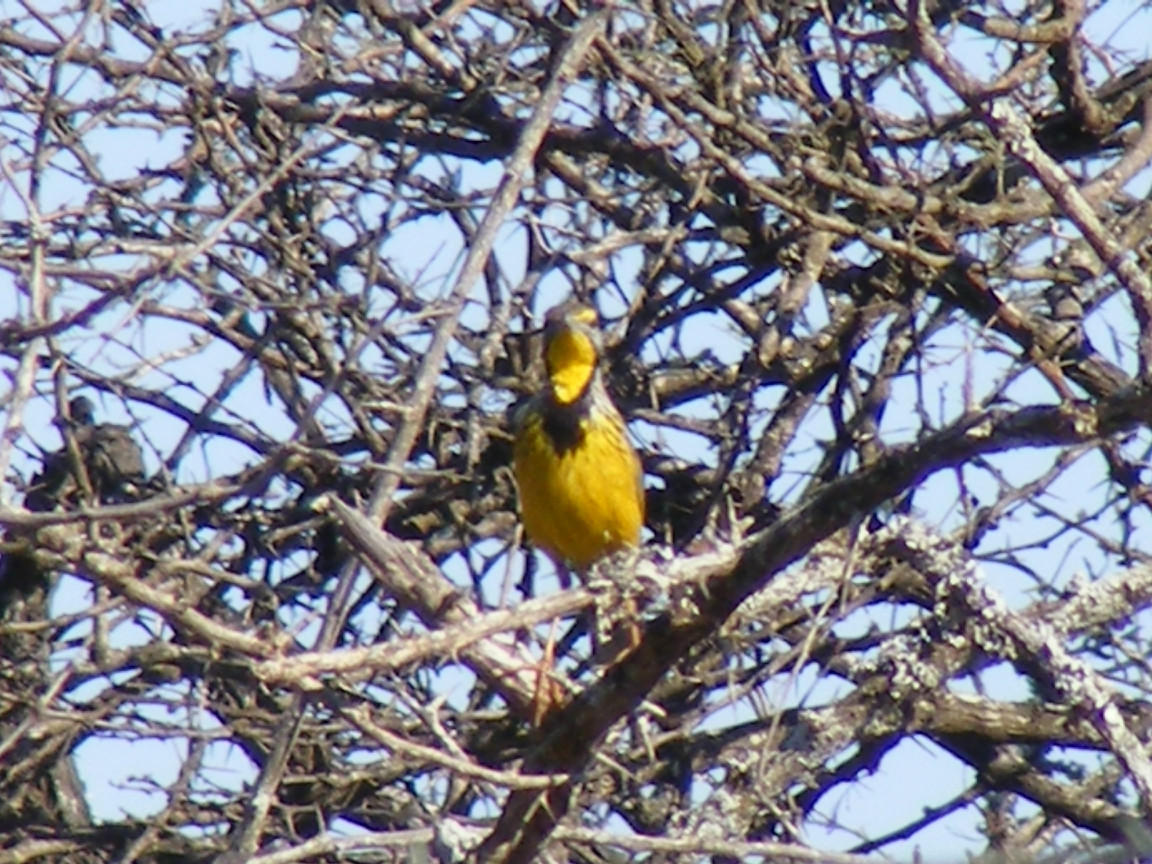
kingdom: Animalia
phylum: Chordata
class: Aves
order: Passeriformes
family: Motacillidae
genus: Macronyx
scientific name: Macronyx croceus
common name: Yellow-throated longclaw
